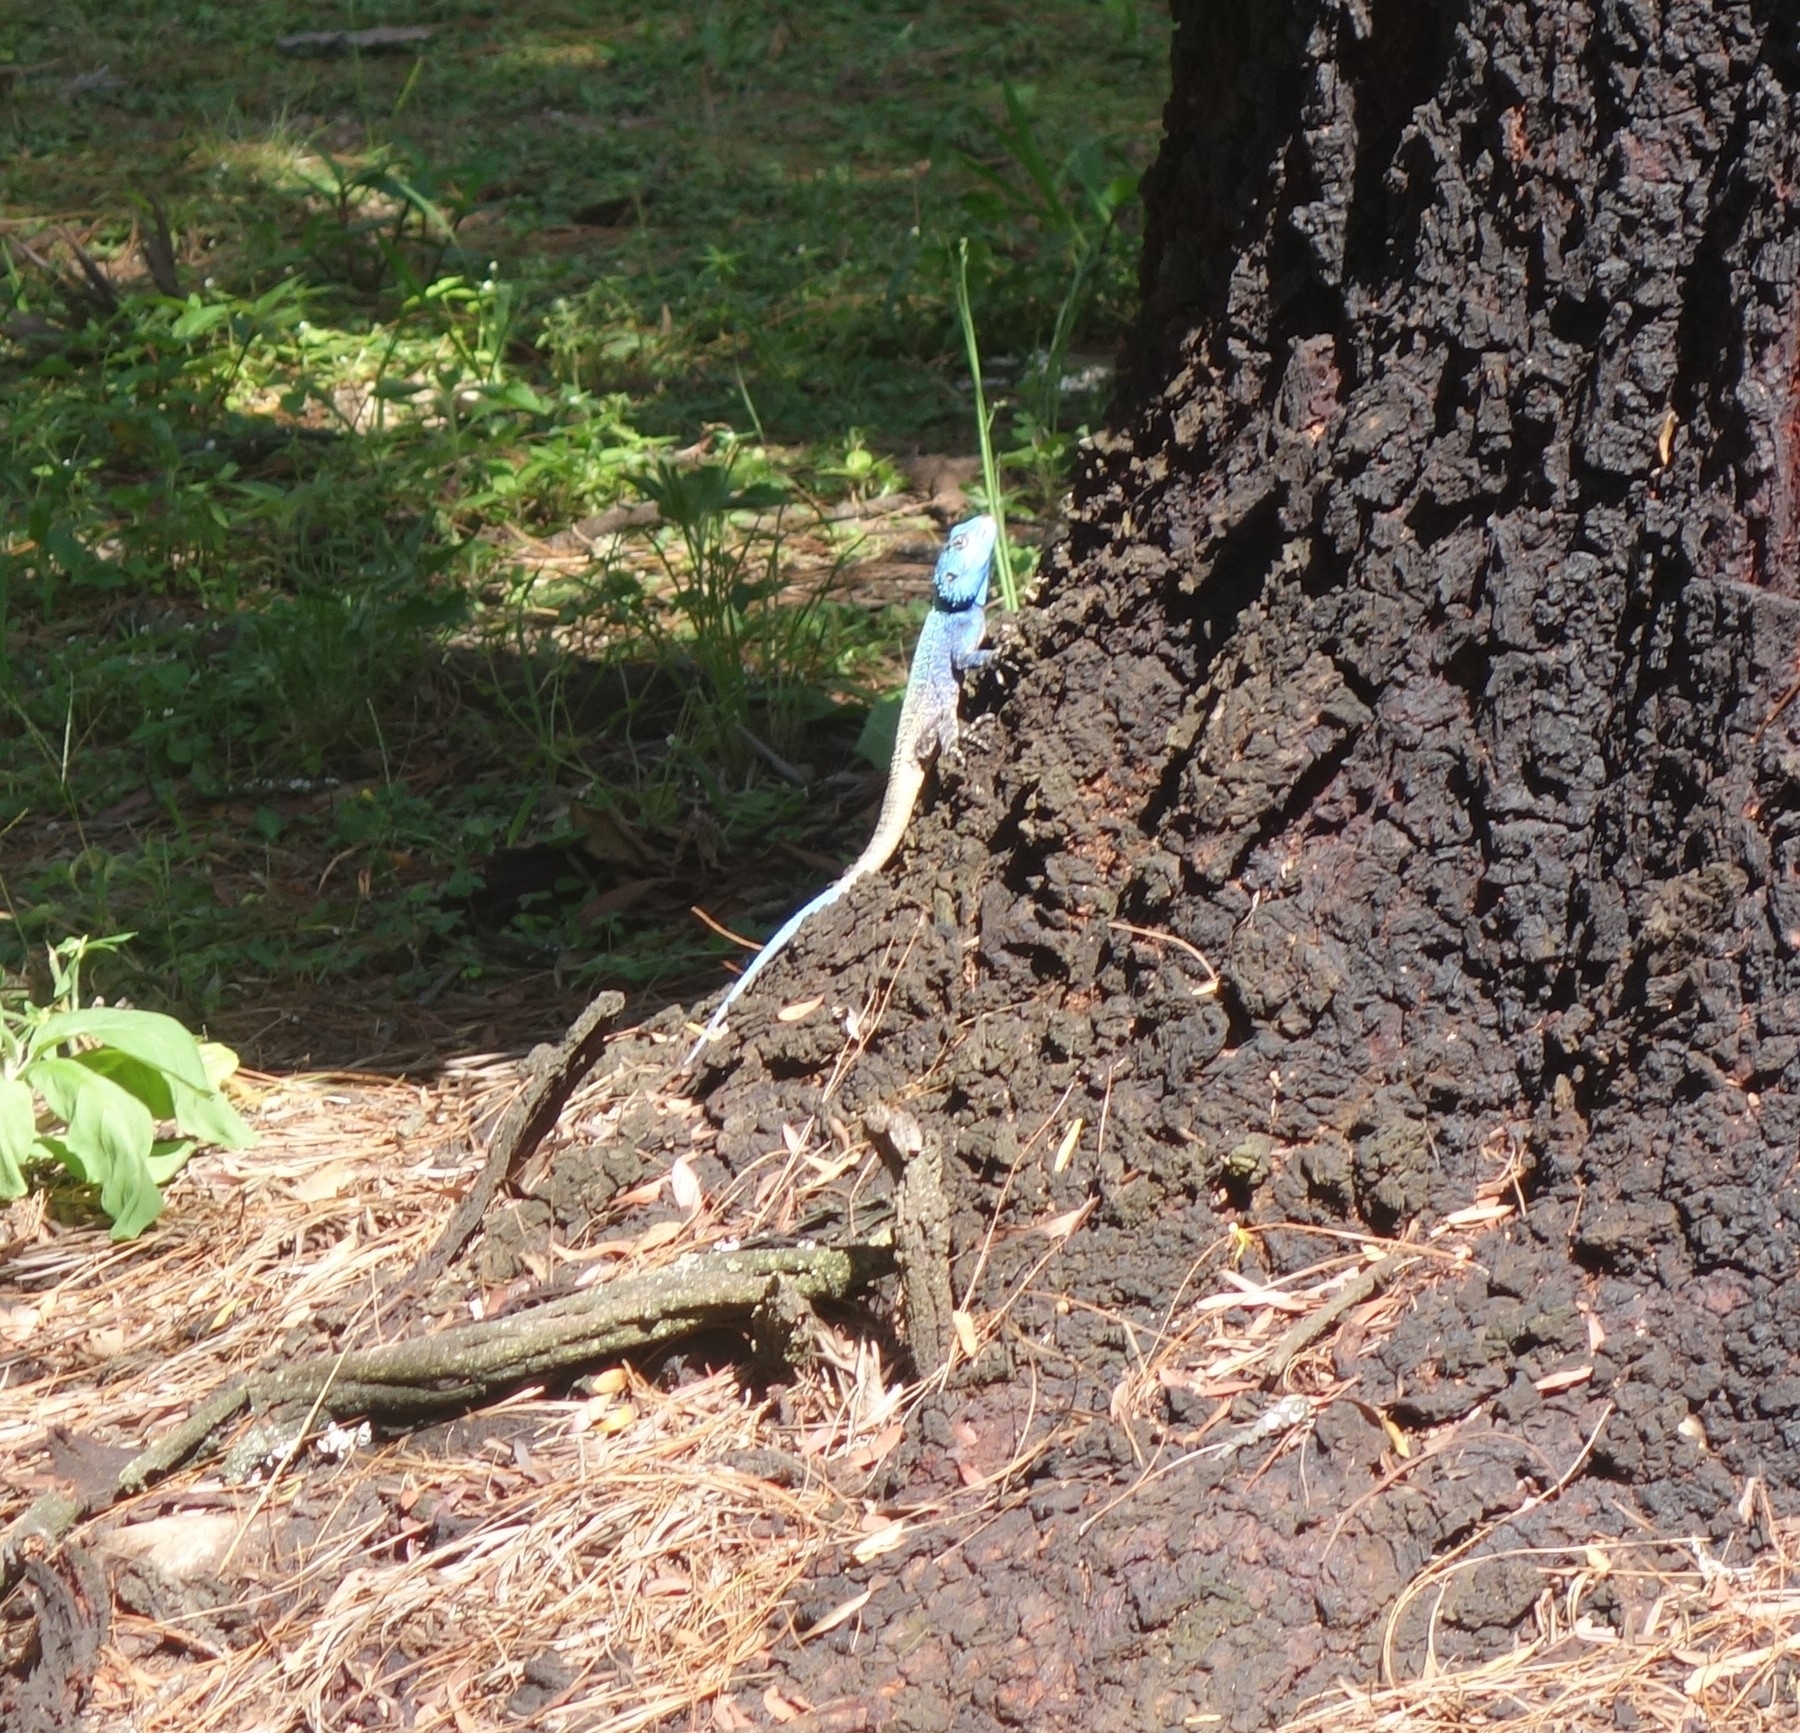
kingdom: Animalia
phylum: Chordata
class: Squamata
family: Agamidae
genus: Acanthocercus
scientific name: Acanthocercus atricollis
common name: Southern tree agama
